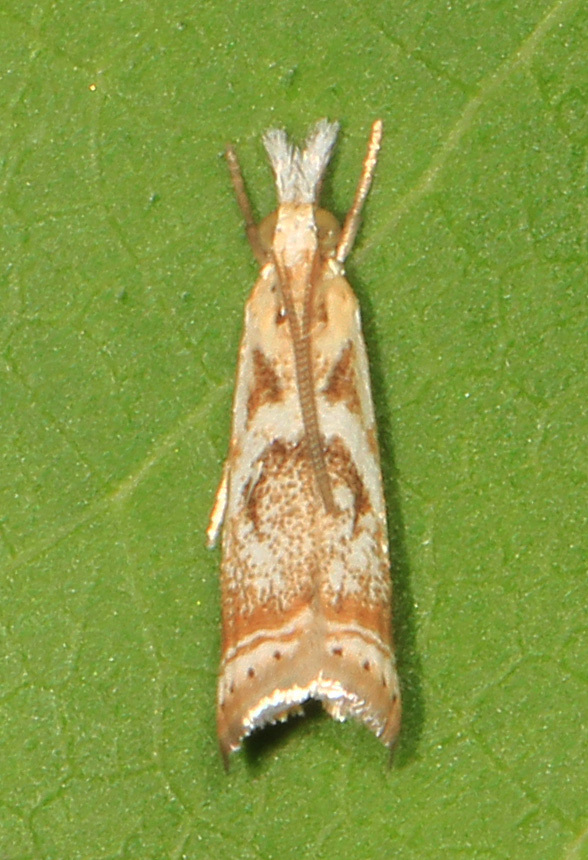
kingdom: Animalia
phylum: Arthropoda
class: Insecta
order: Lepidoptera
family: Crambidae
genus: Microcrambus
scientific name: Microcrambus elegans
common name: Elegant grass-veneer
